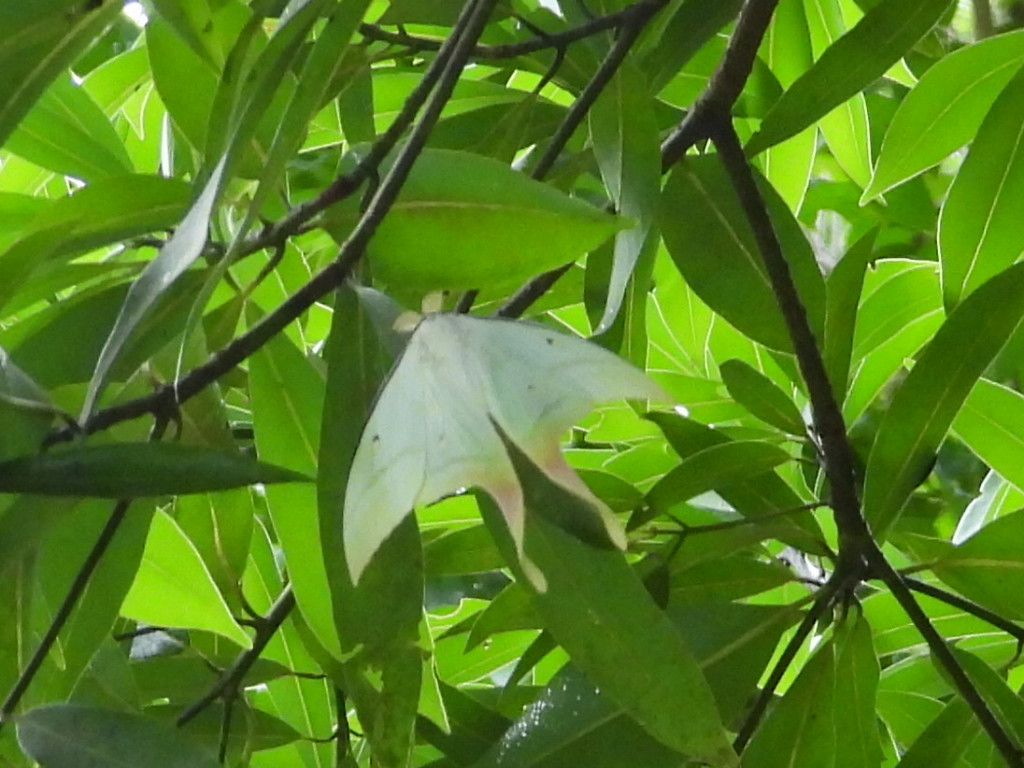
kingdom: Animalia
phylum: Arthropoda
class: Insecta
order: Lepidoptera
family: Saturniidae
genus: Actias
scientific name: Actias ningpoana
